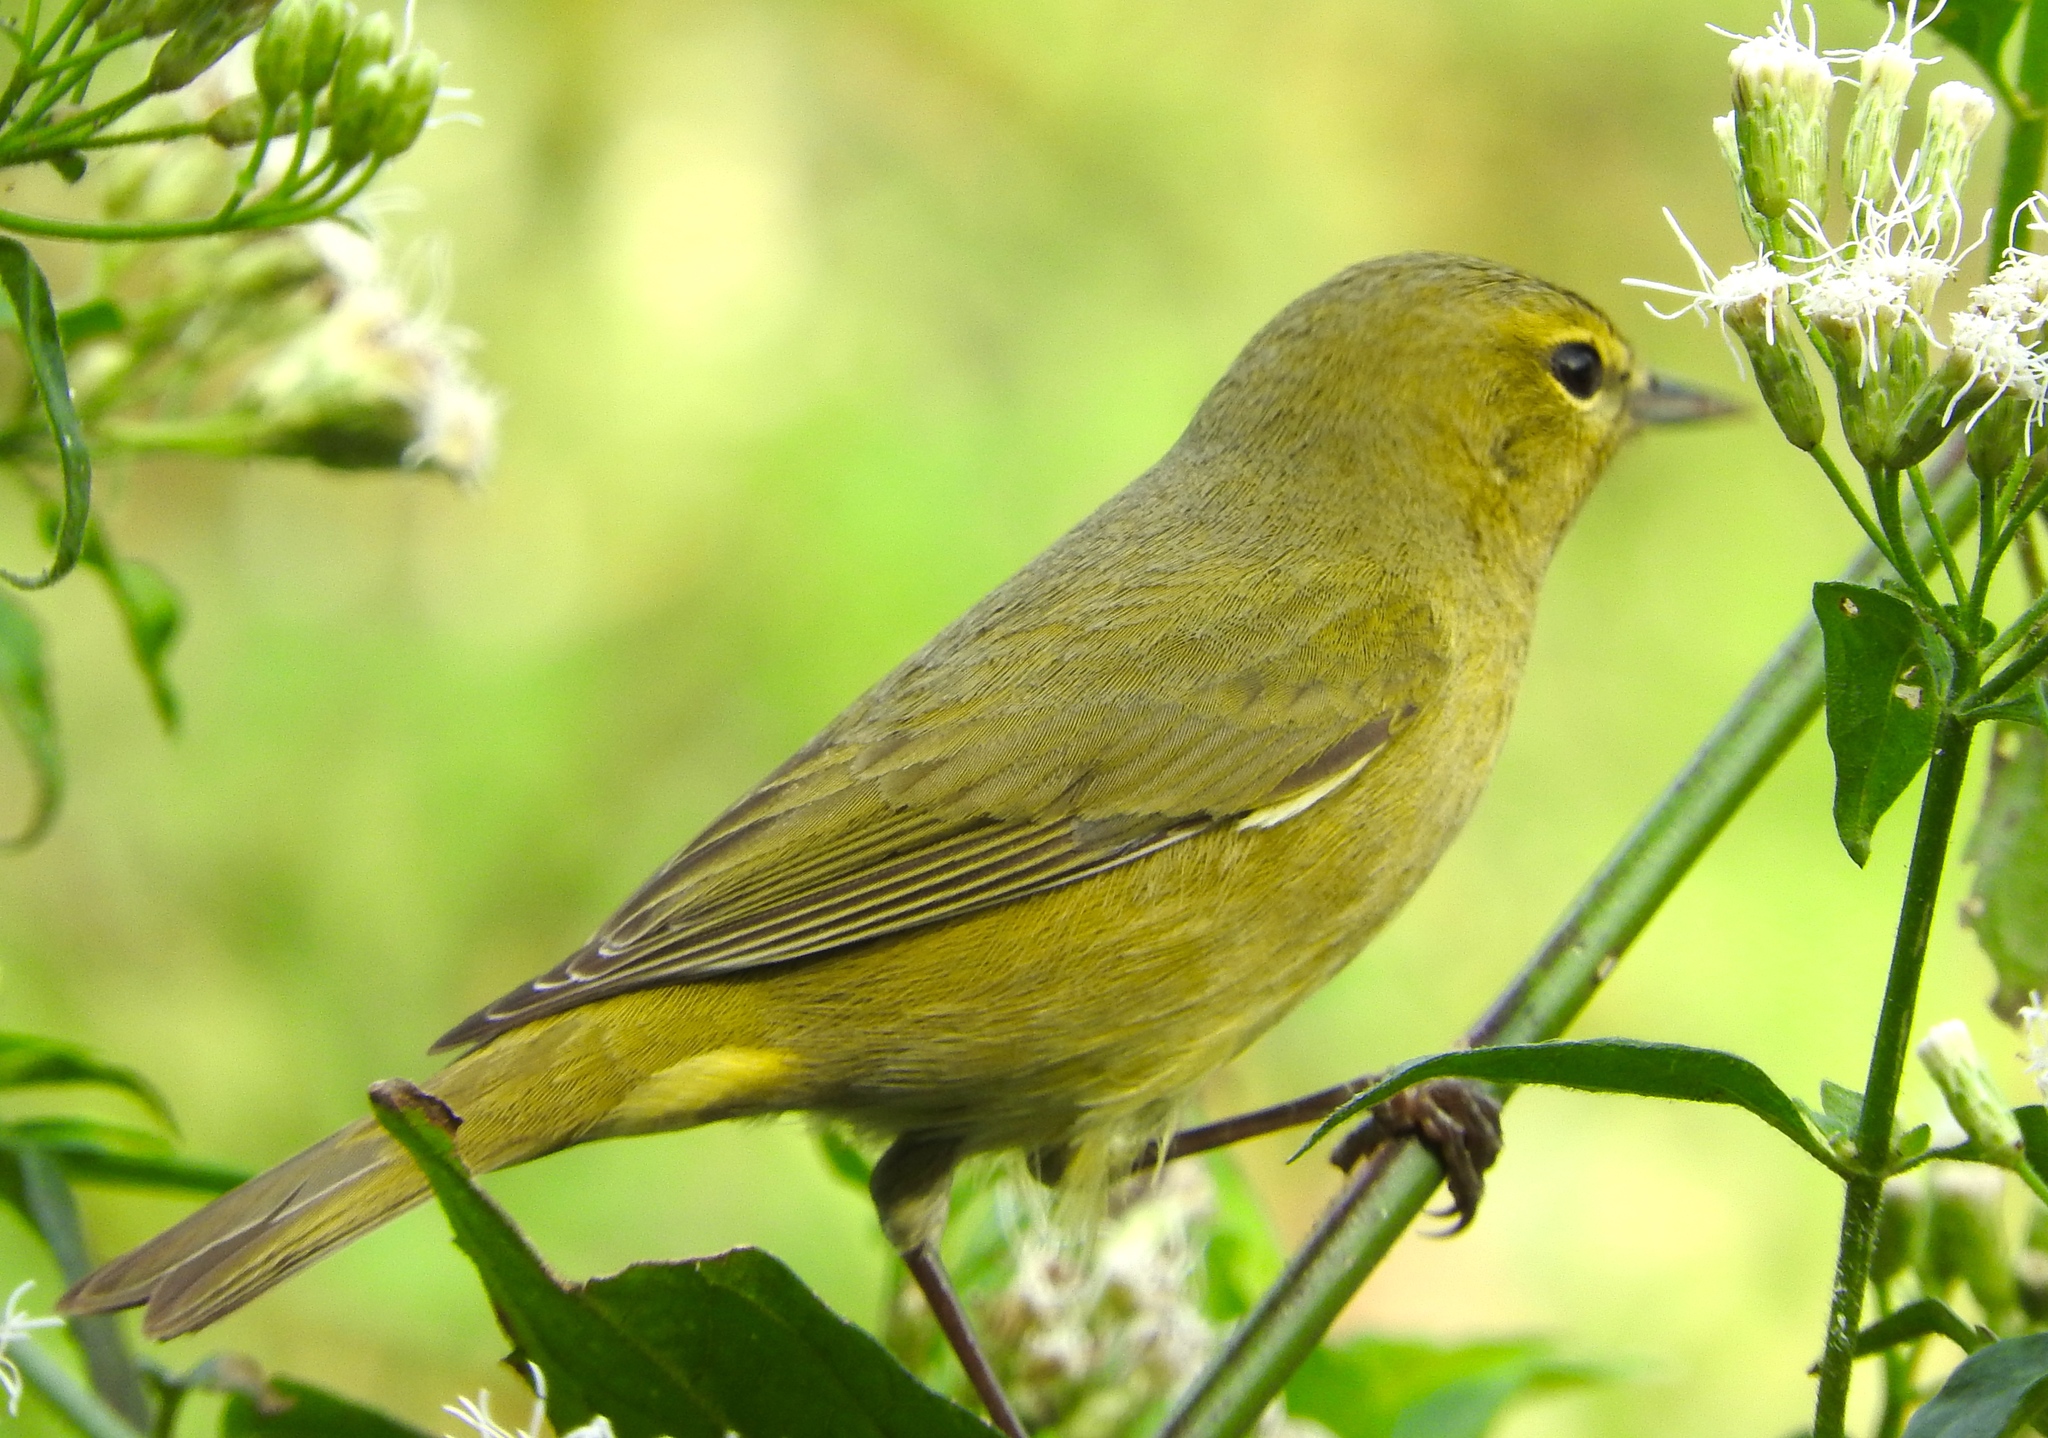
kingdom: Animalia
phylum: Chordata
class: Aves
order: Passeriformes
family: Parulidae
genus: Leiothlypis
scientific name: Leiothlypis celata
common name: Orange-crowned warbler
